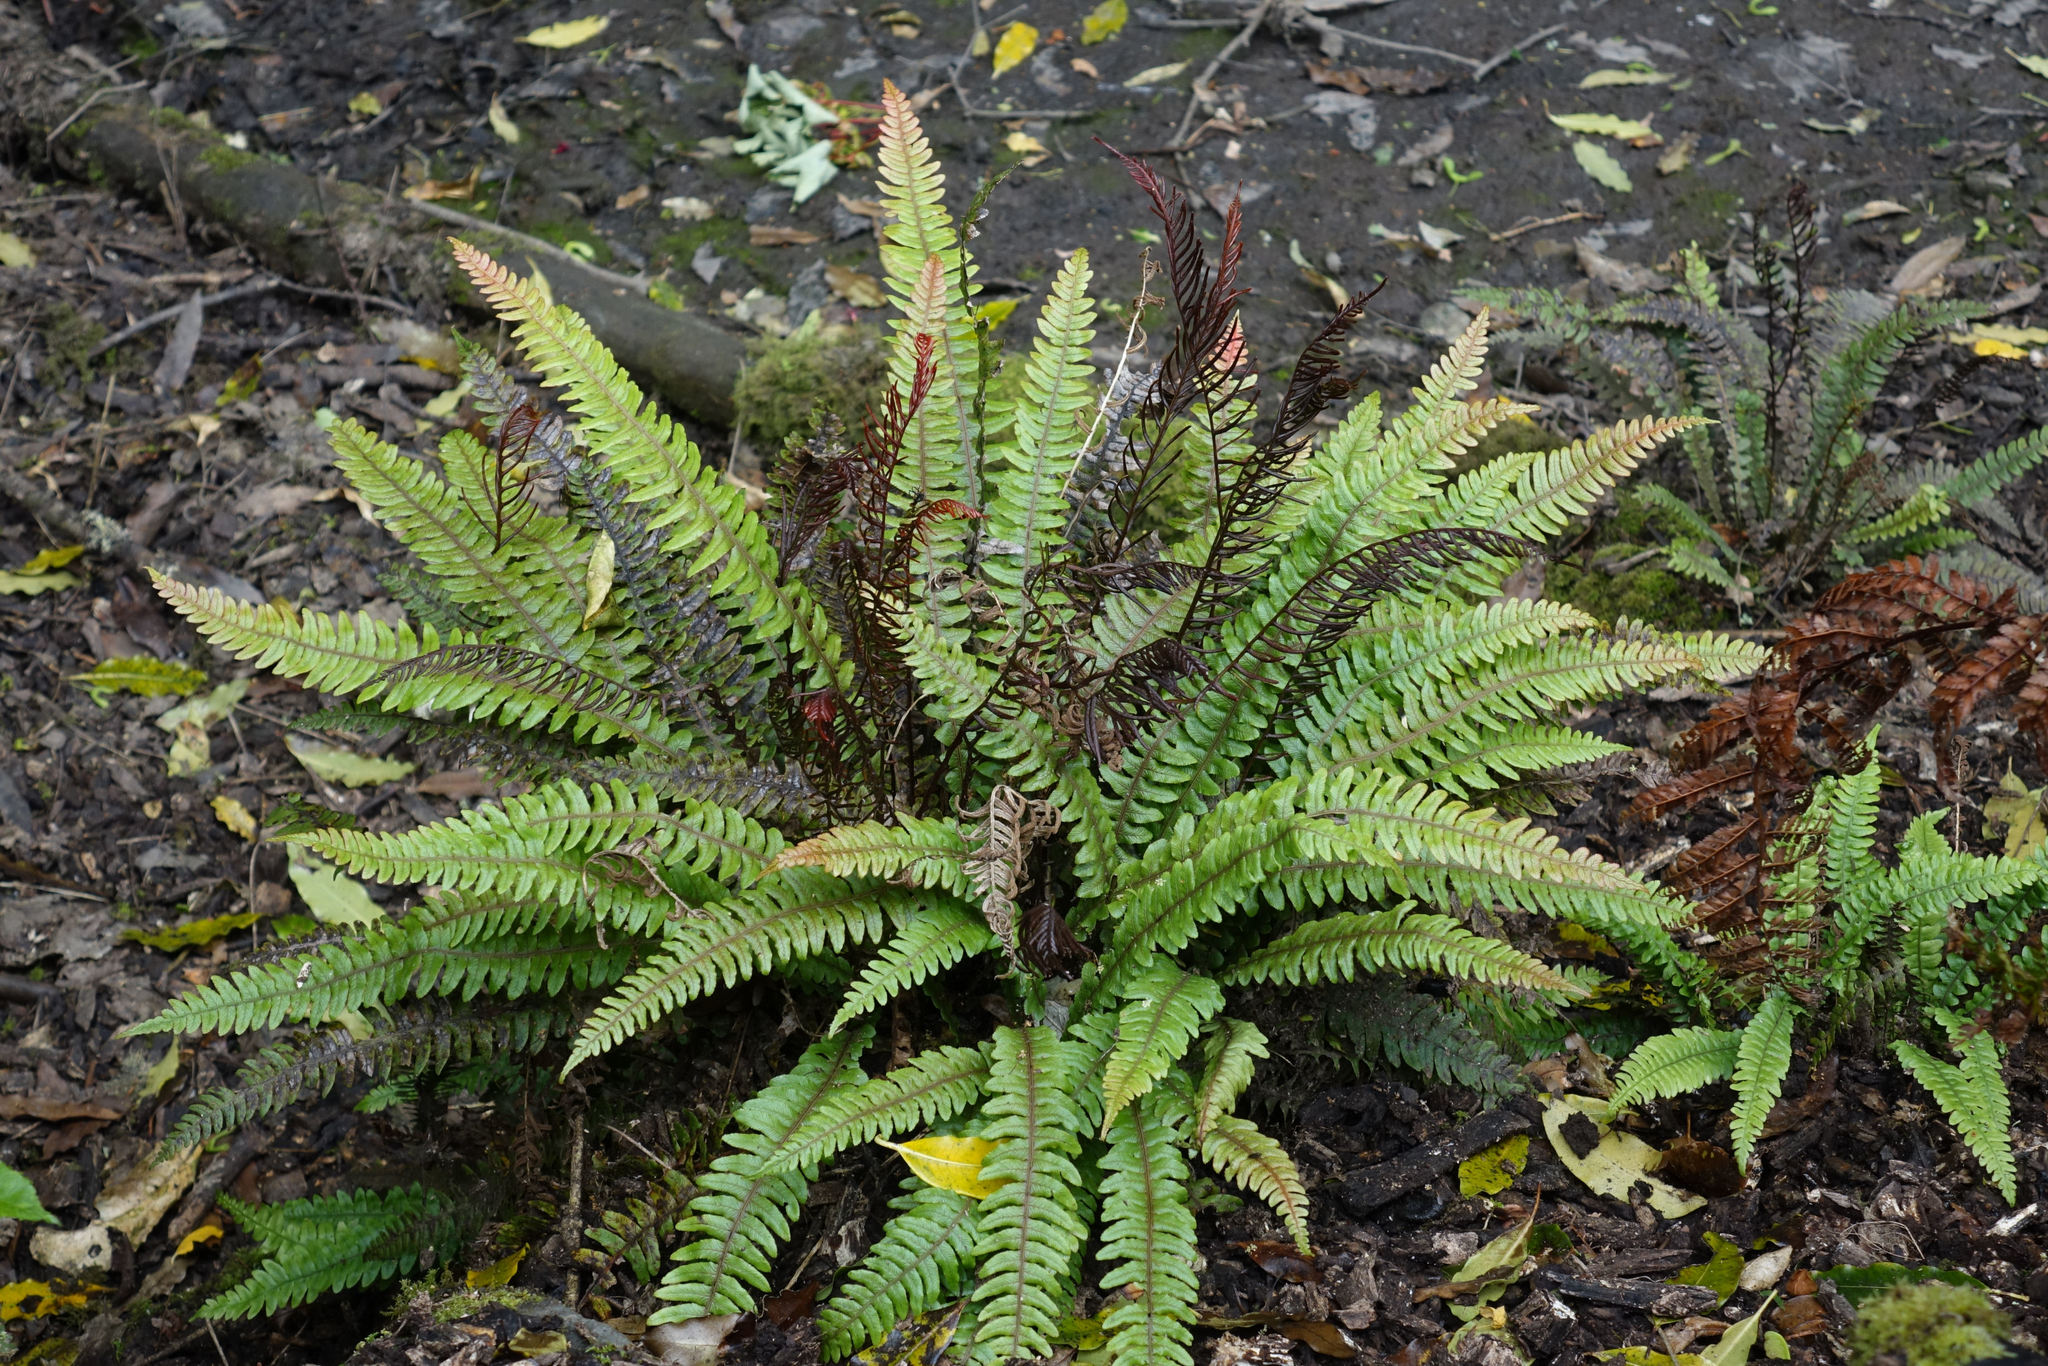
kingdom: Plantae
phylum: Tracheophyta
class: Polypodiopsida
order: Polypodiales
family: Blechnaceae
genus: Austroblechnum
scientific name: Austroblechnum lanceolatum
